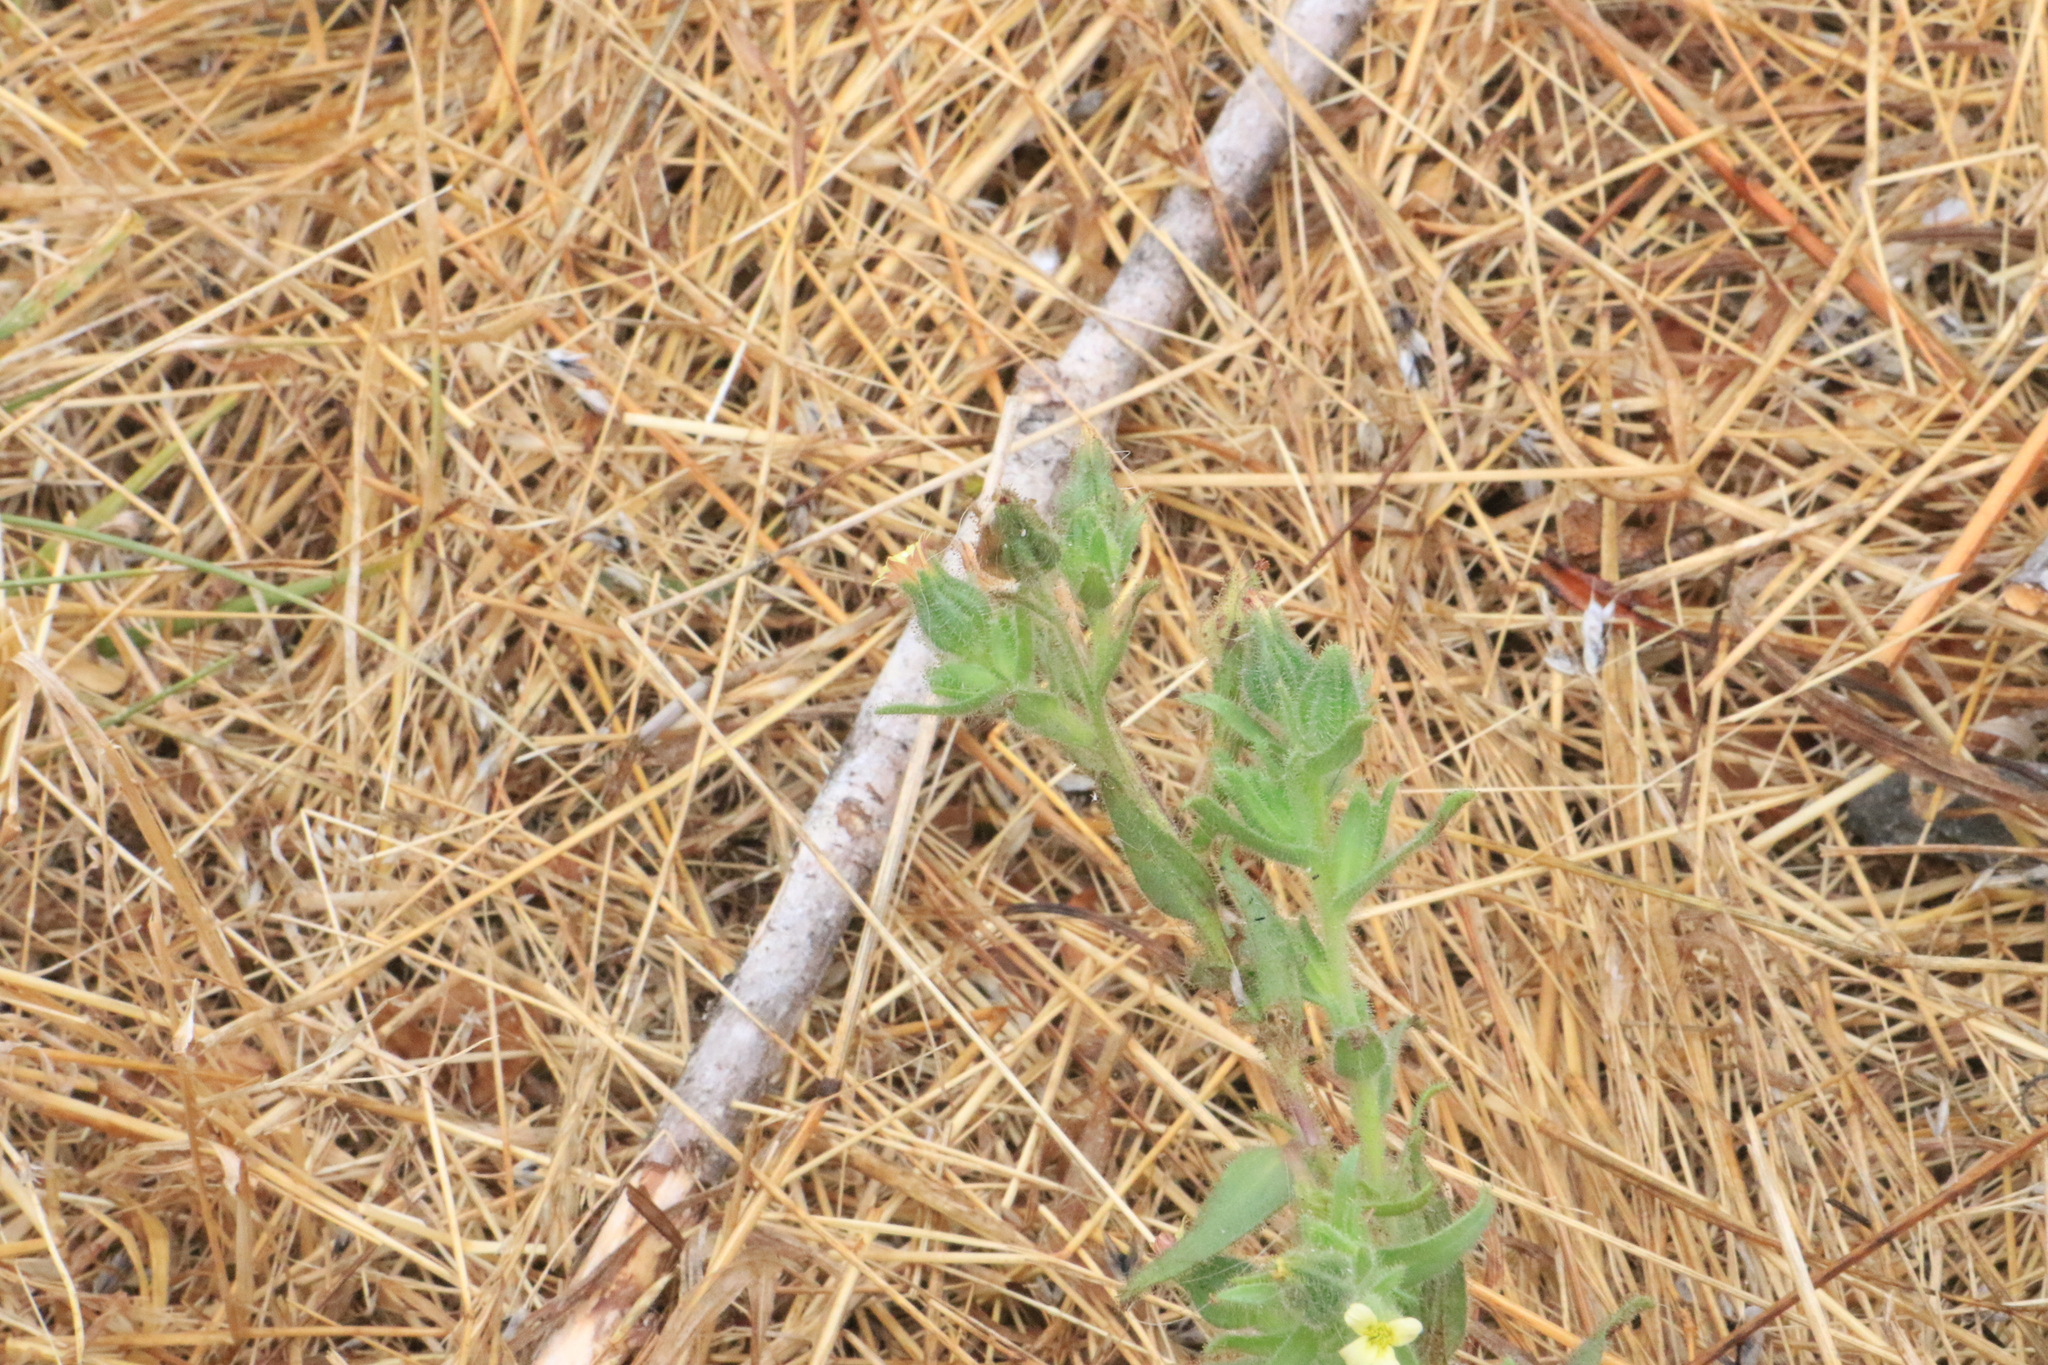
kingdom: Plantae
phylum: Tracheophyta
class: Magnoliopsida
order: Asterales
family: Asteraceae
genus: Madia
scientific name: Madia sativa
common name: Coast tarweed
